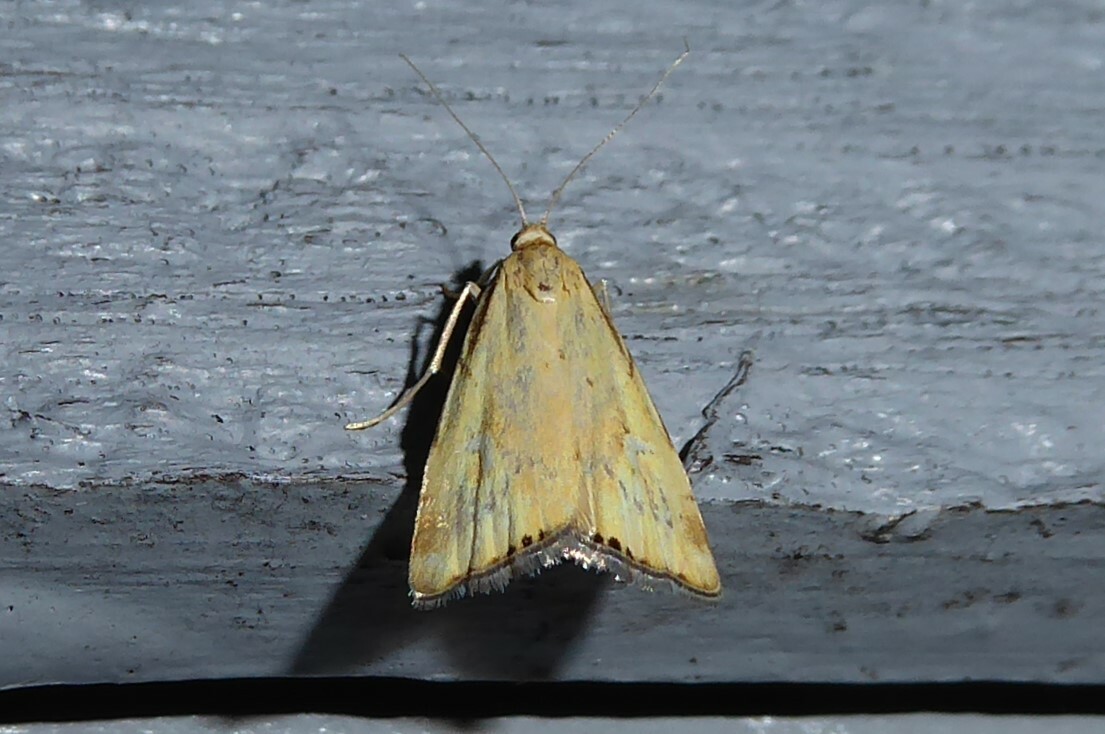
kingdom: Animalia
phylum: Arthropoda
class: Insecta
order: Lepidoptera
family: Crambidae
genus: Glaucocharis
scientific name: Glaucocharis lepidella
